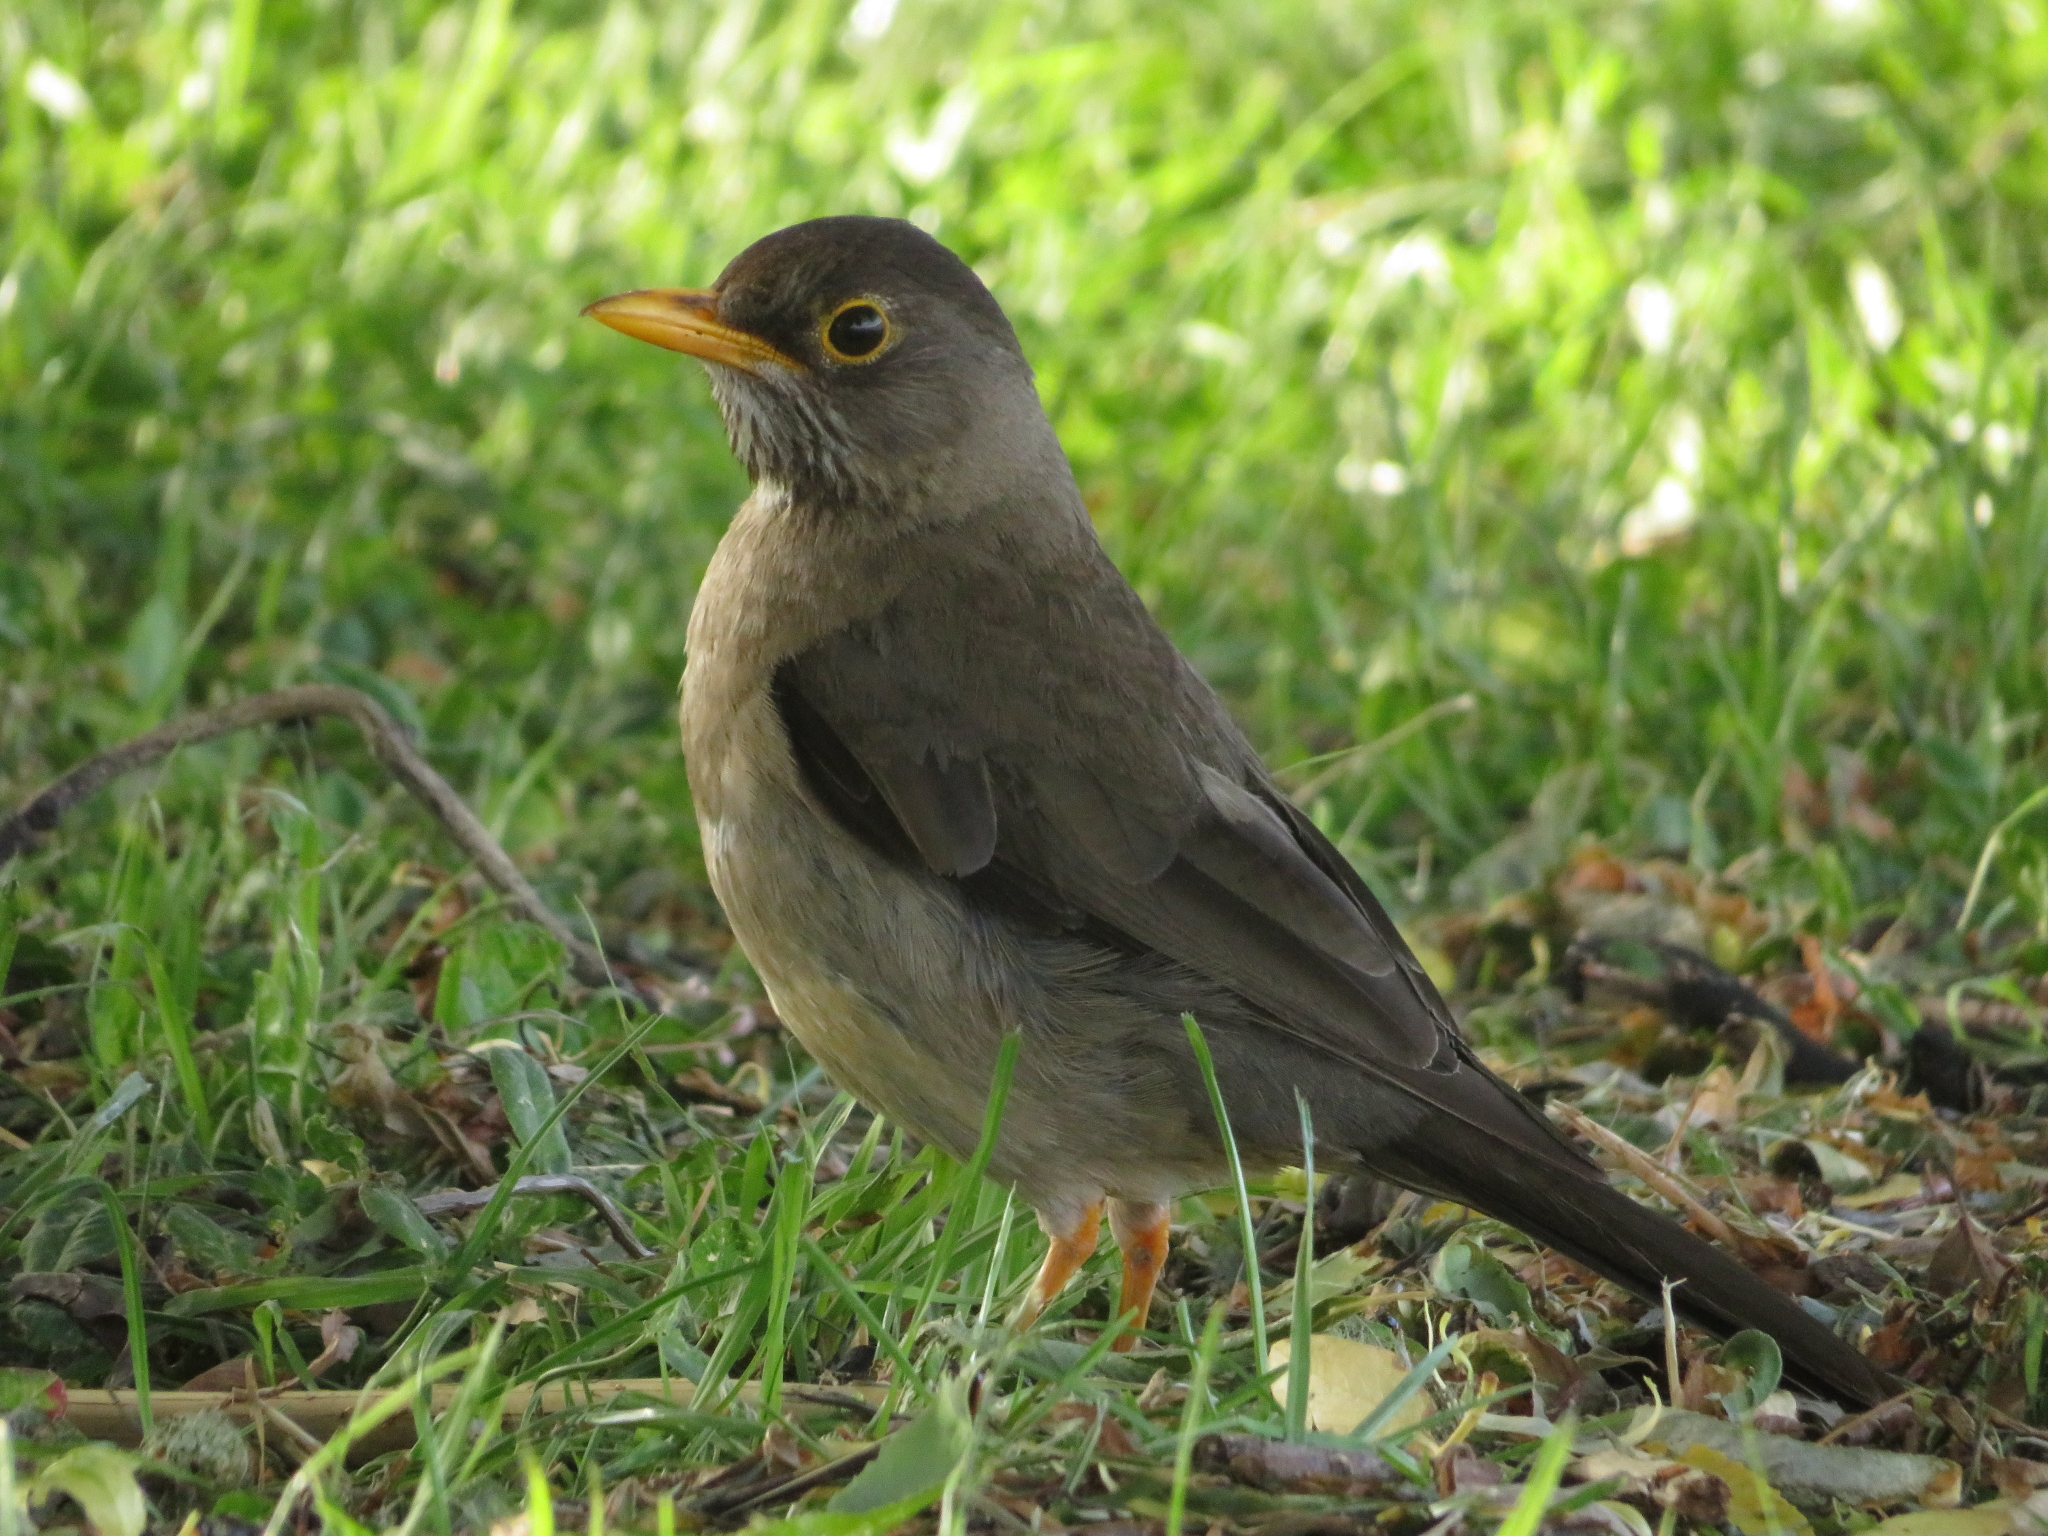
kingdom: Animalia
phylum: Chordata
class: Aves
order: Passeriformes
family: Turdidae
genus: Turdus
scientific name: Turdus falcklandii
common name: Austral thrush
